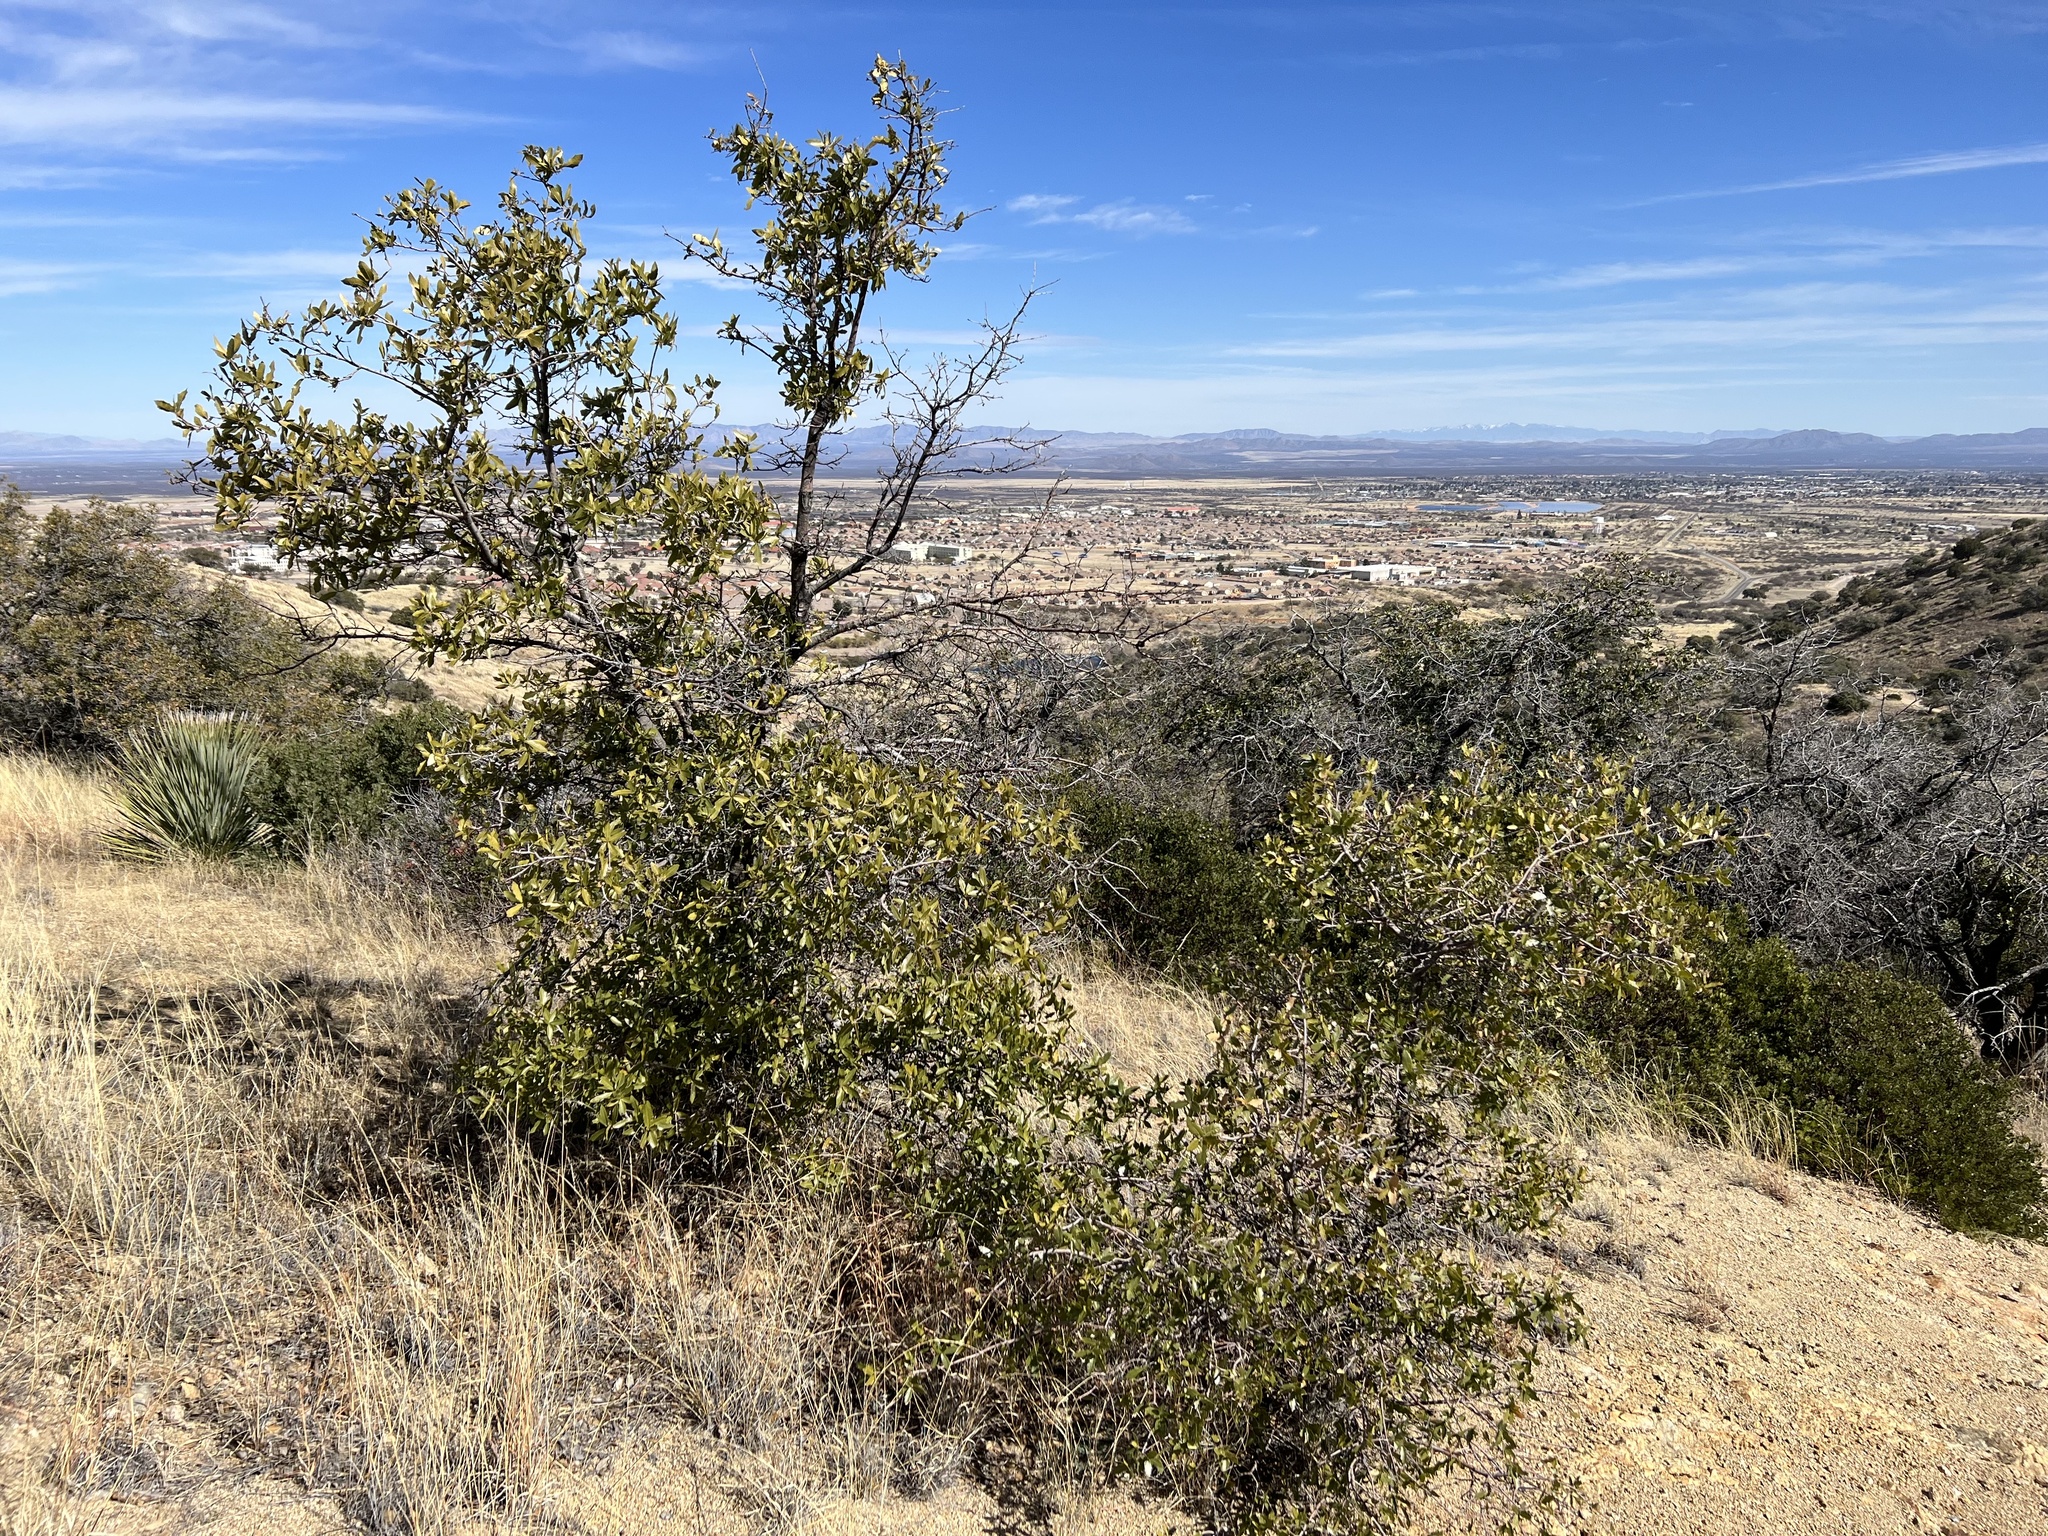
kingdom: Plantae
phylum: Tracheophyta
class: Magnoliopsida
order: Fagales
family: Fagaceae
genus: Quercus
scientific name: Quercus emoryi
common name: Emory oak
